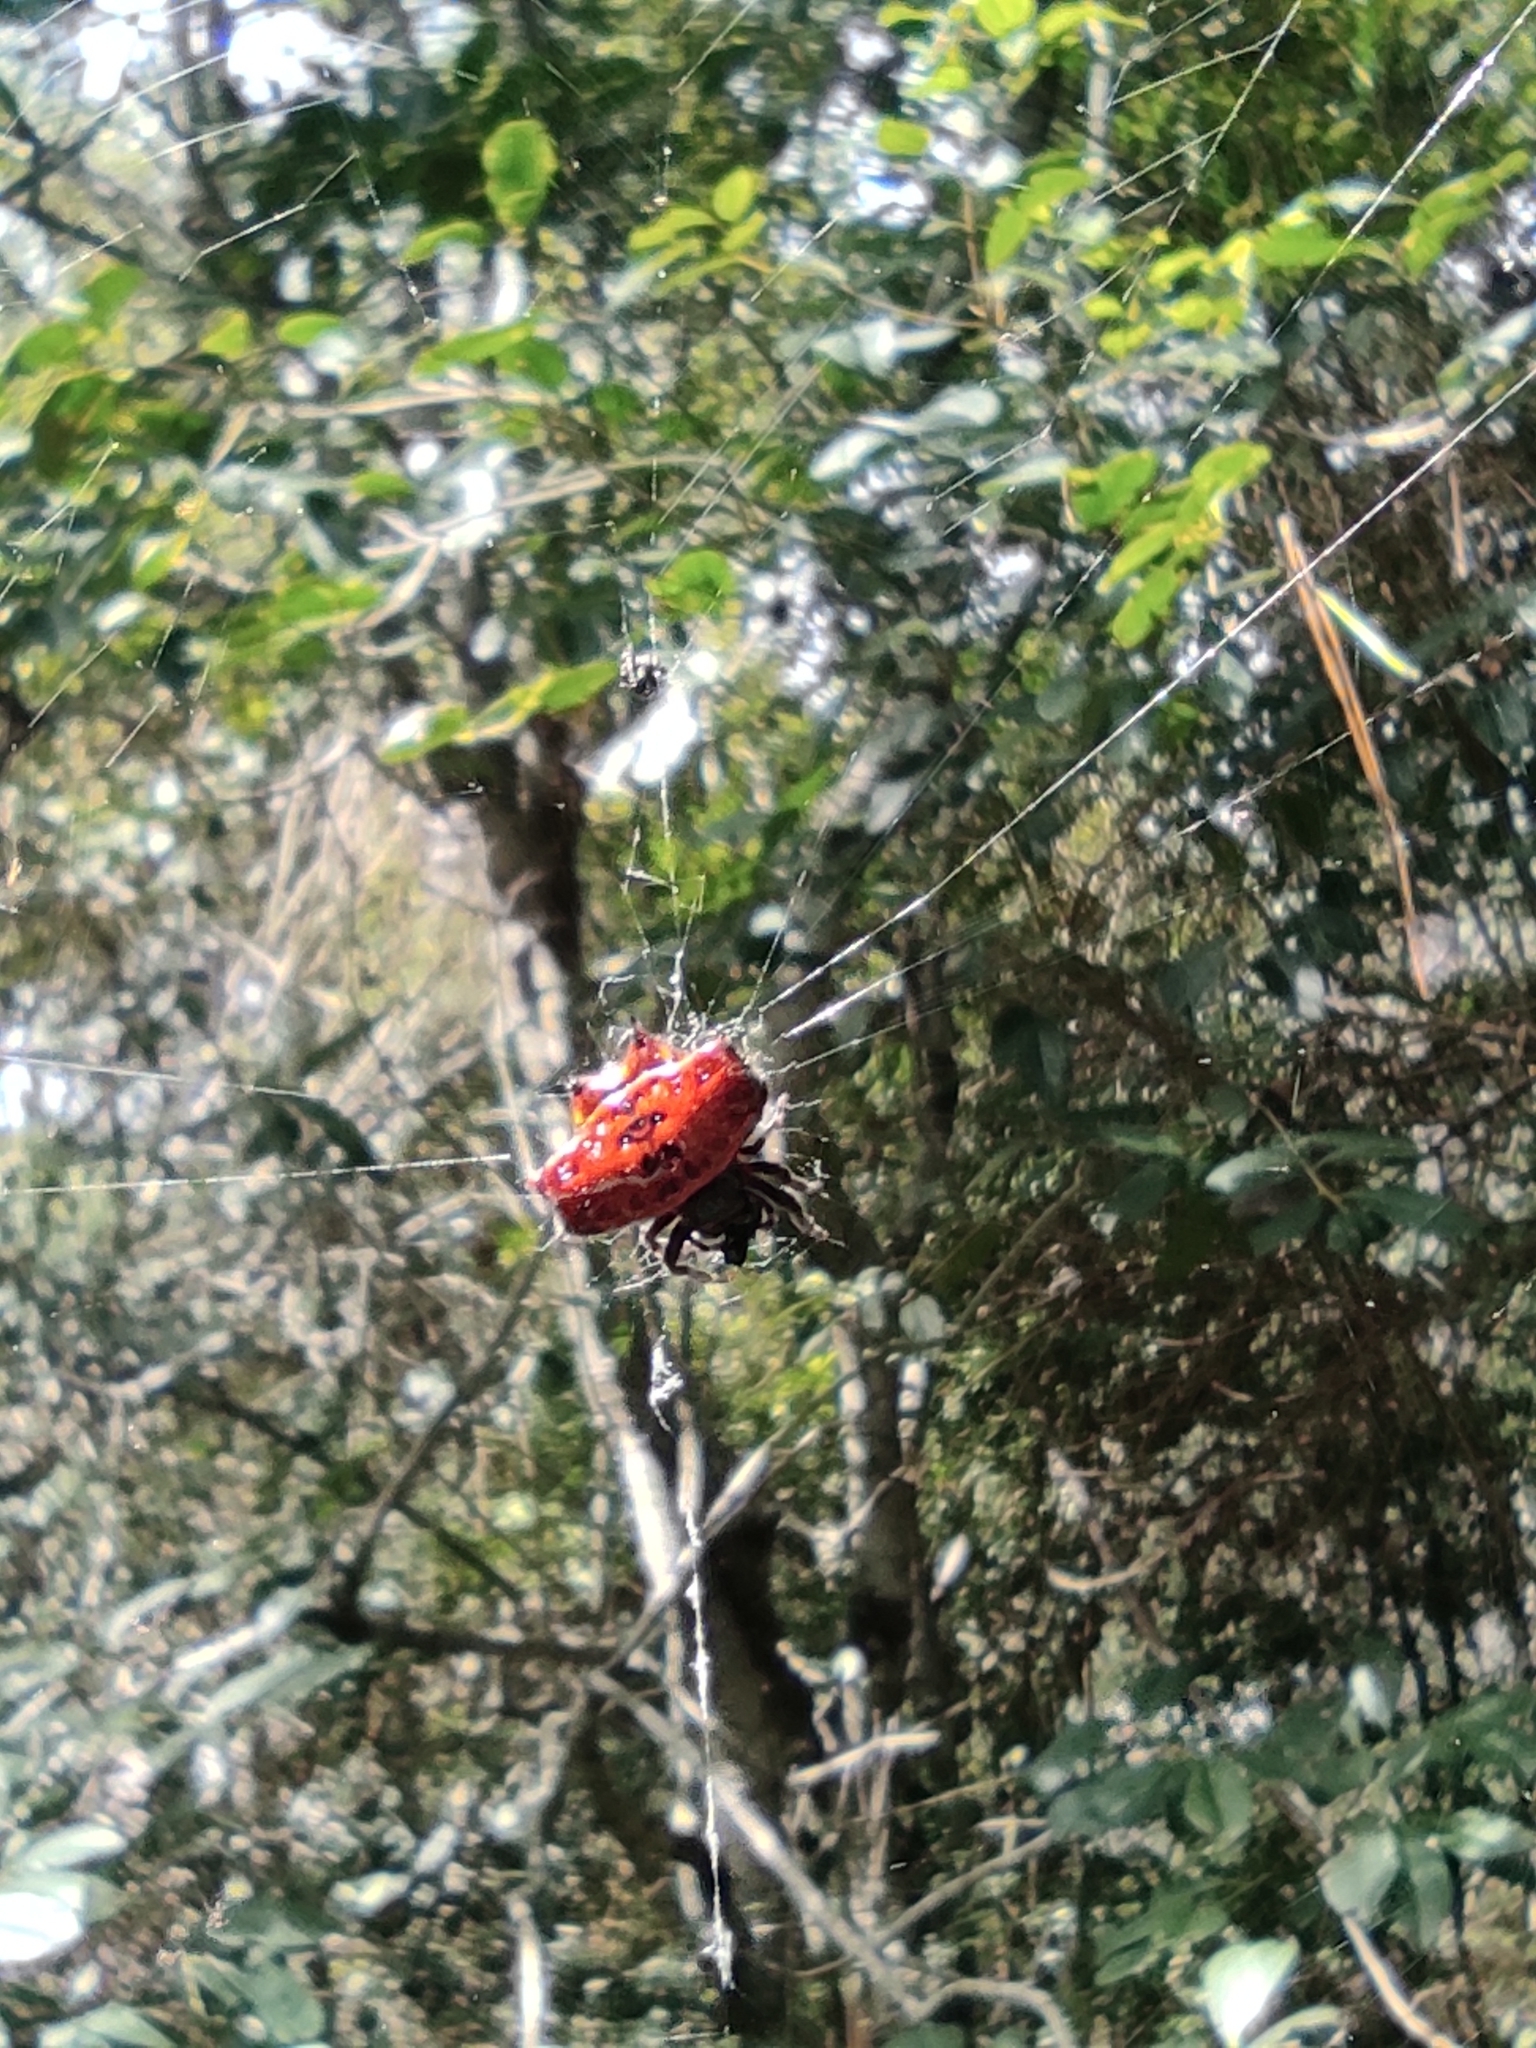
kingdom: Animalia
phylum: Arthropoda
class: Arachnida
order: Araneae
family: Araneidae
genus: Gasteracantha
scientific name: Gasteracantha cancriformis
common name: Orb weavers
